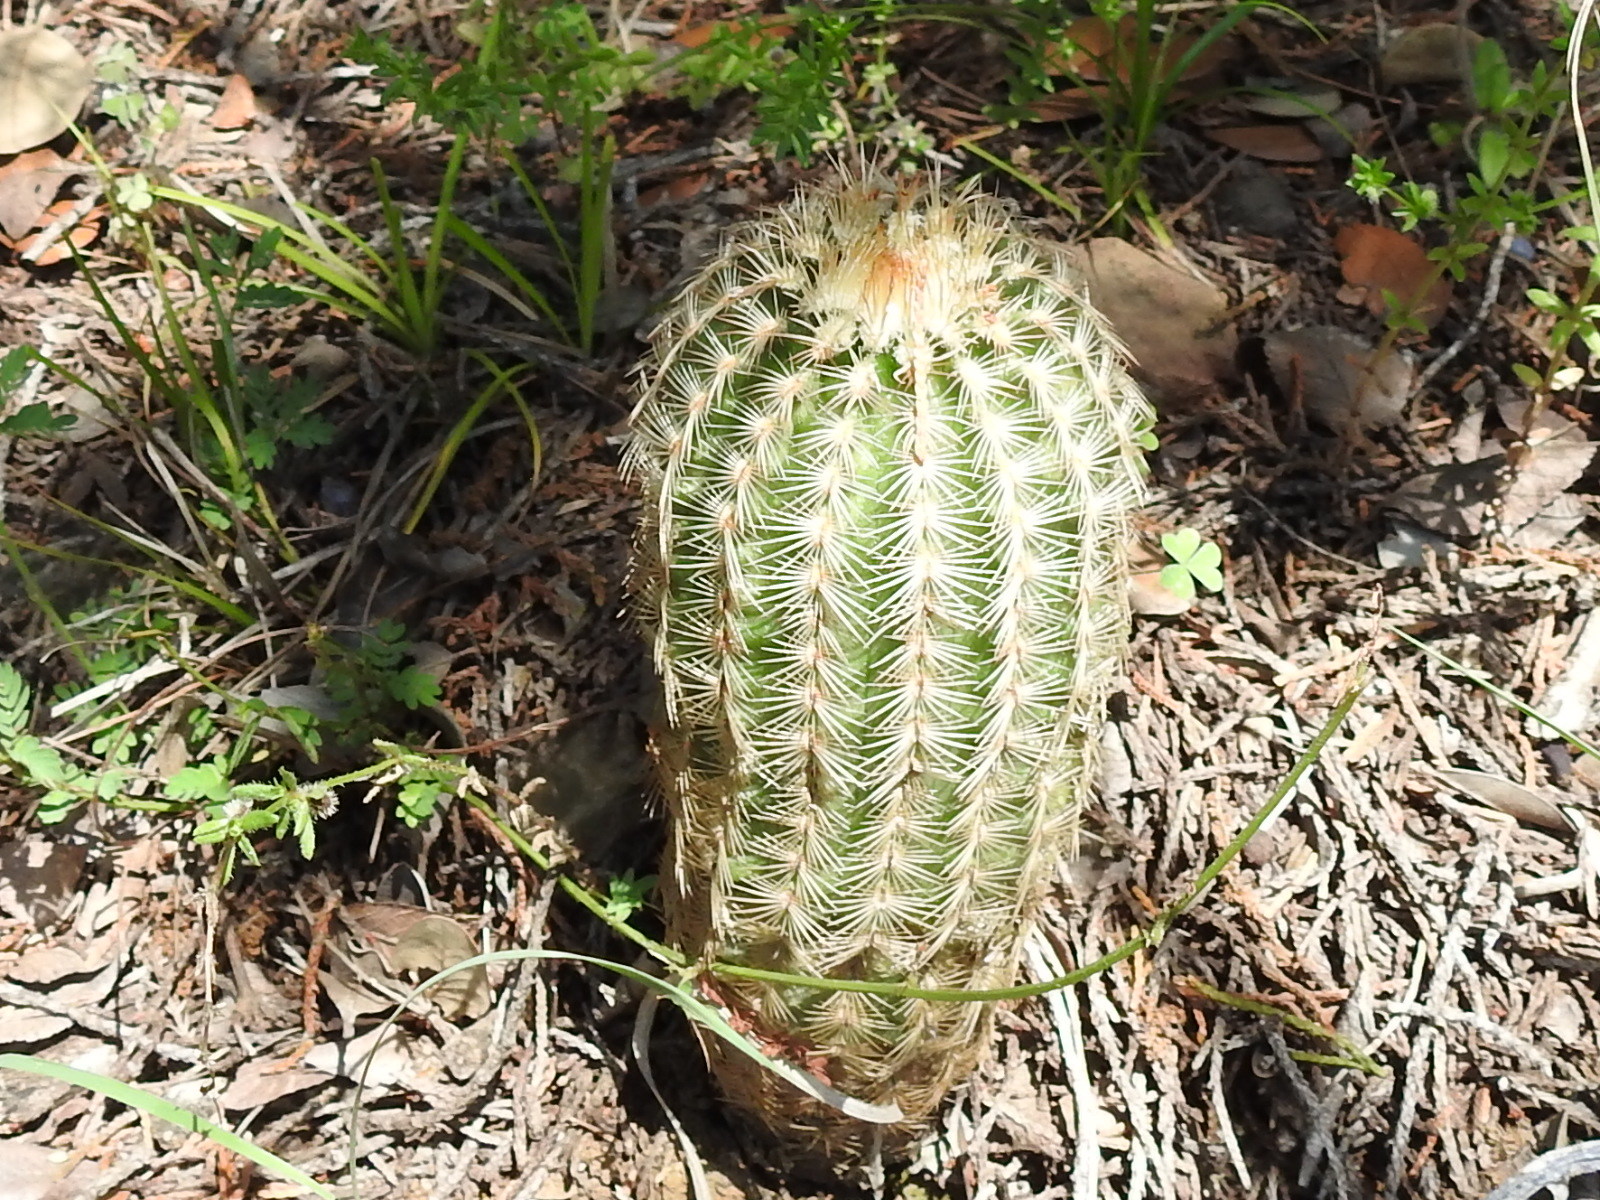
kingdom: Plantae
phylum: Tracheophyta
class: Magnoliopsida
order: Caryophyllales
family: Cactaceae
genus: Echinocereus
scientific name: Echinocereus reichenbachii
